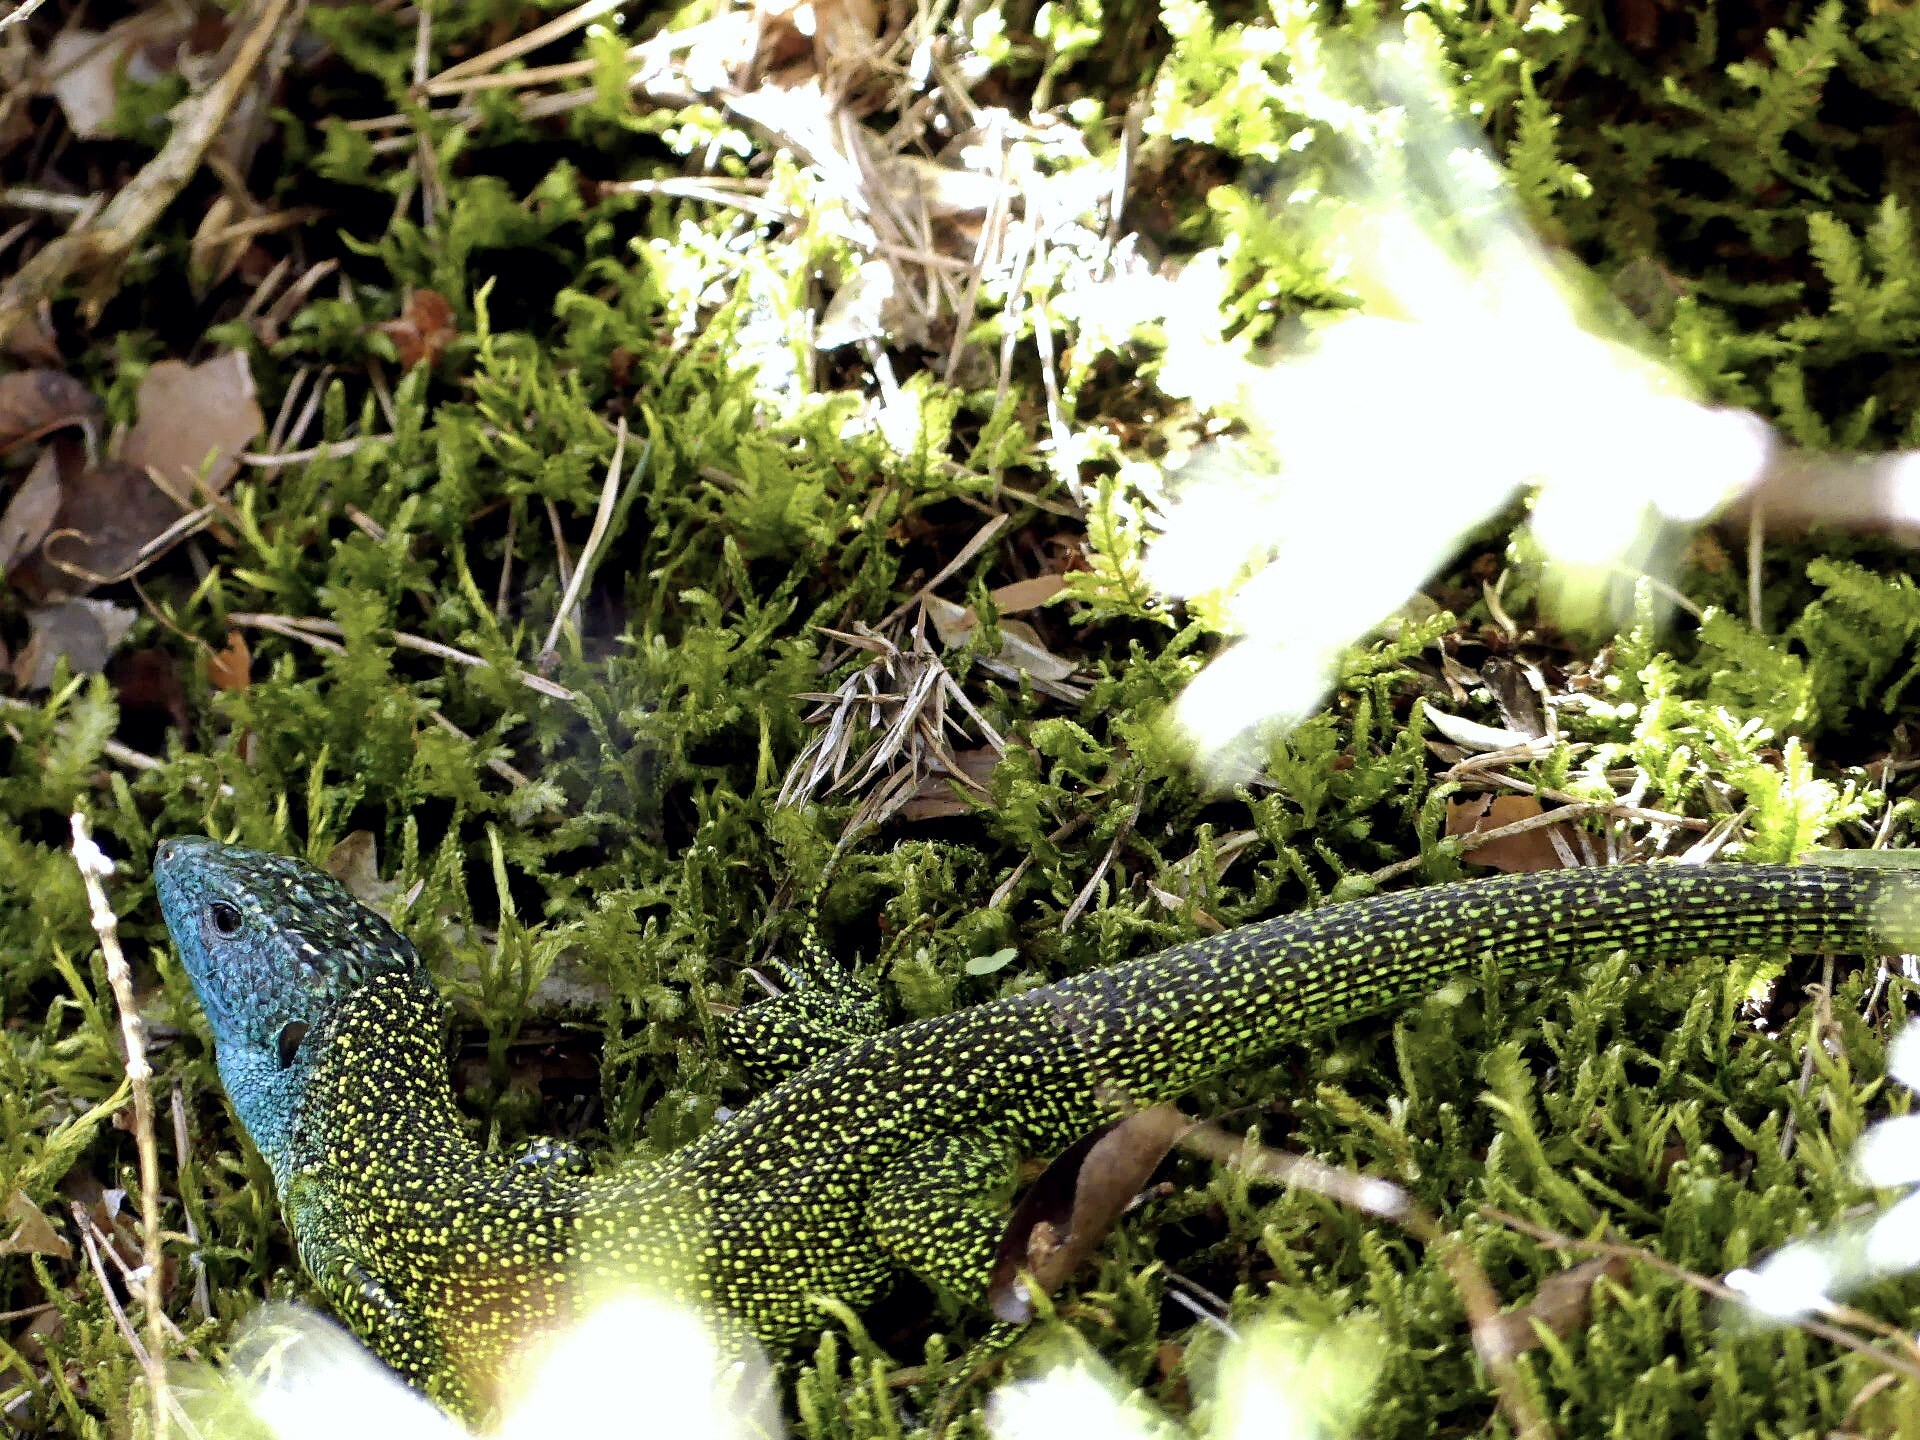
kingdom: Animalia
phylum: Chordata
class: Squamata
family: Lacertidae
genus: Lacerta
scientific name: Lacerta bilineata
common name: Western green lizard
